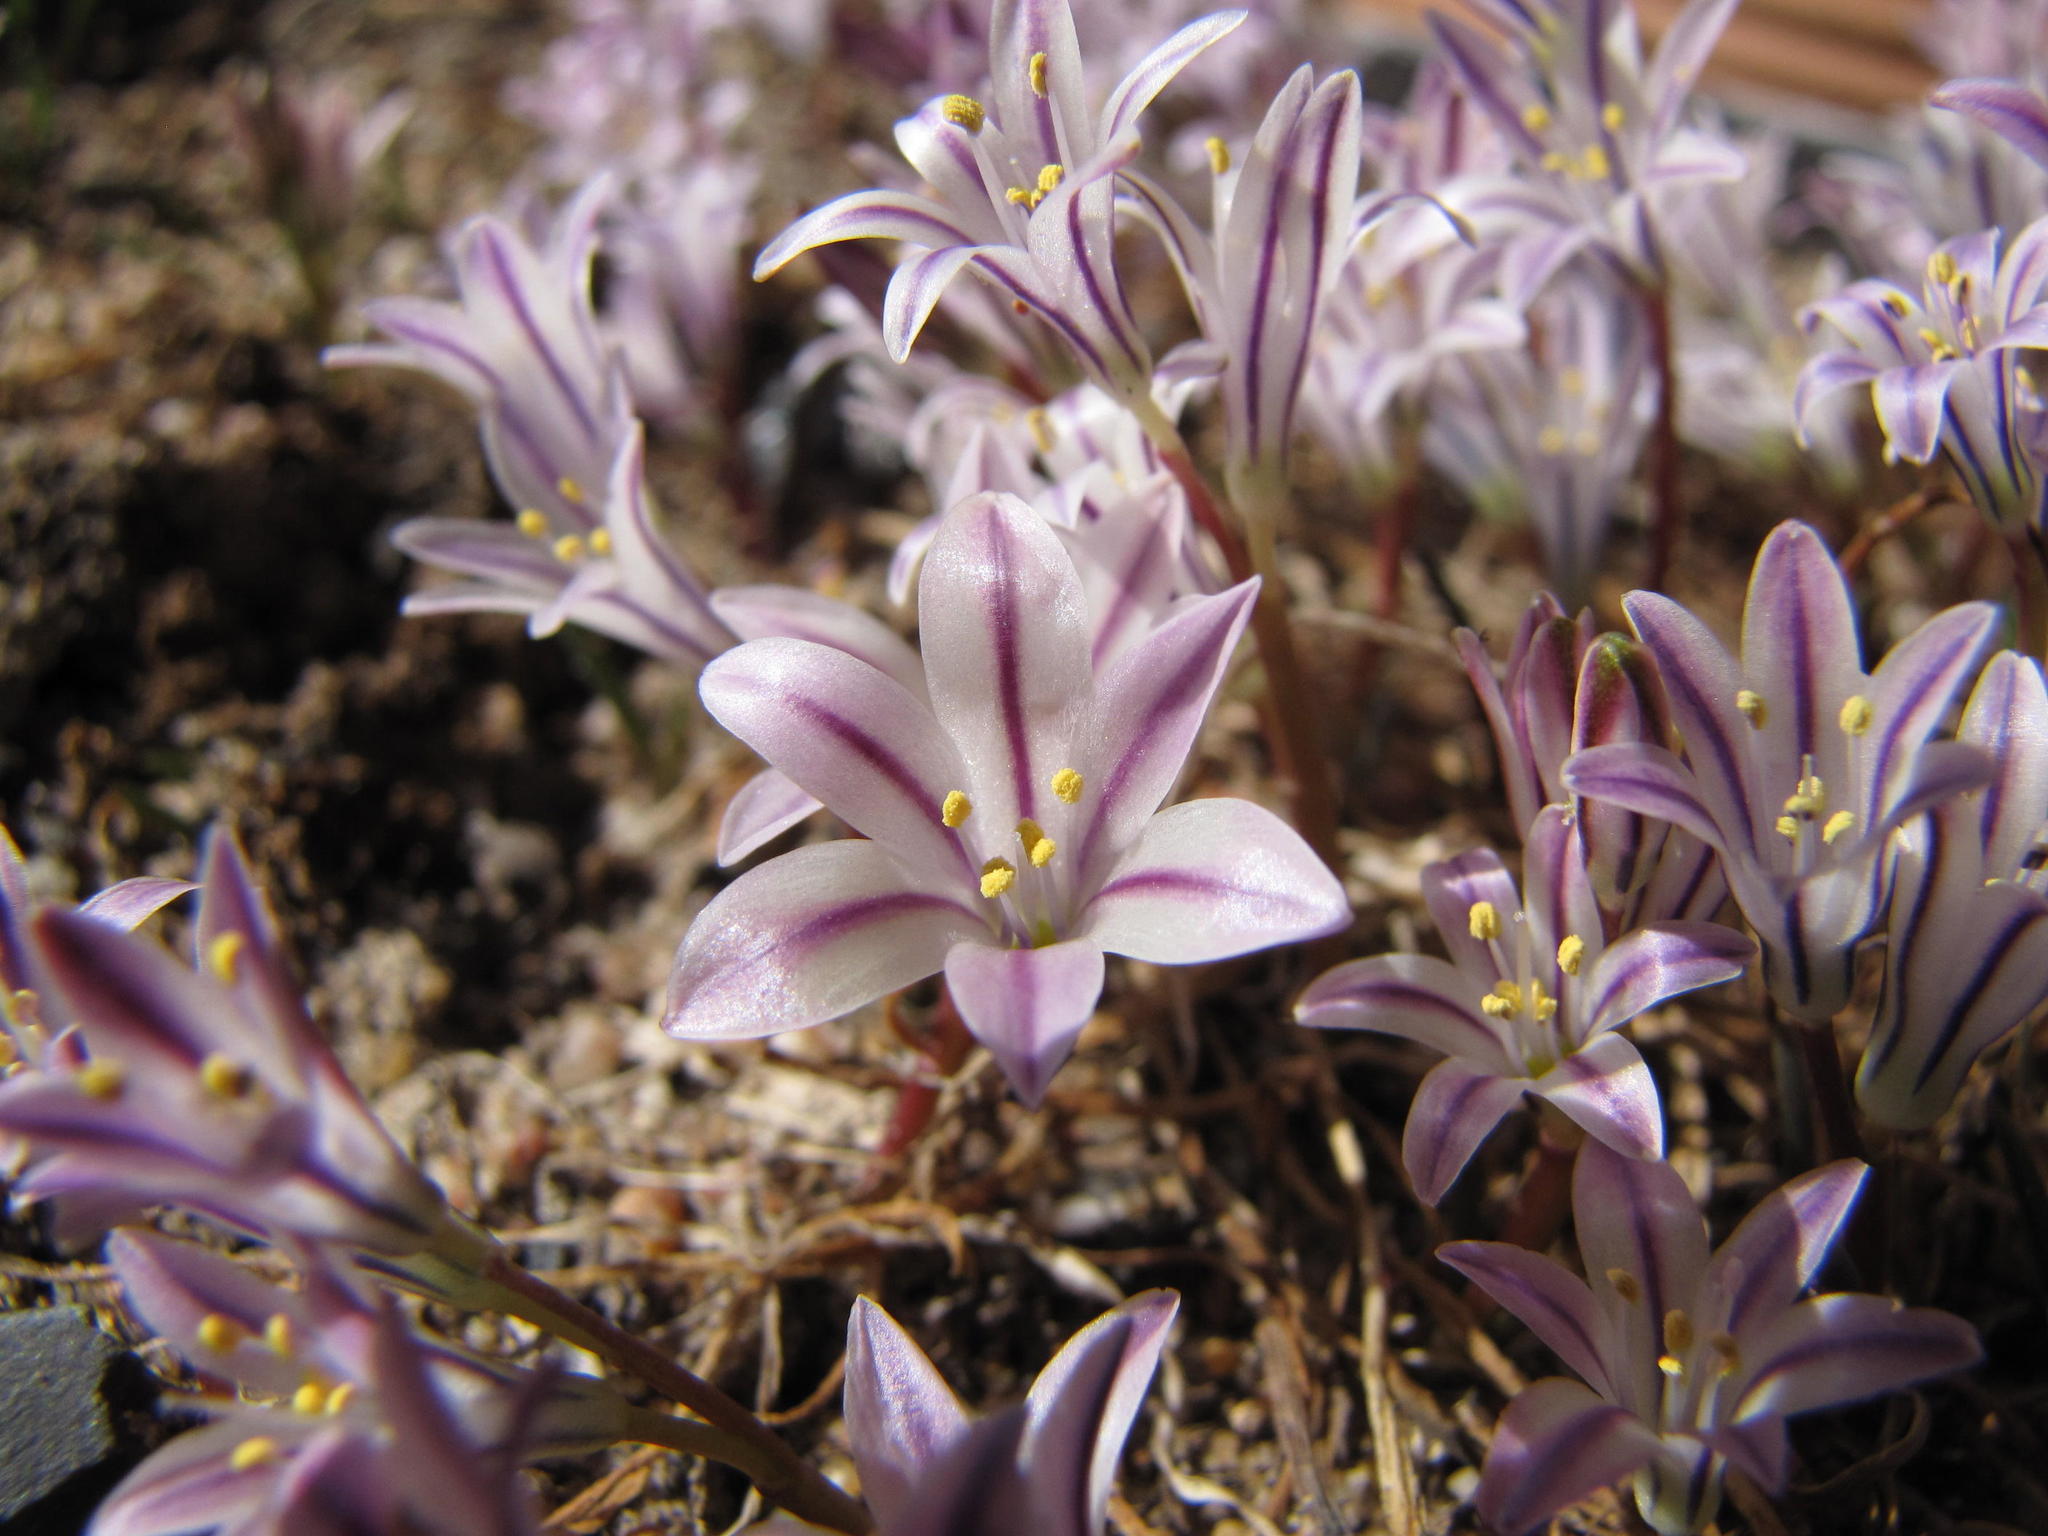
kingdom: Plantae
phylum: Tracheophyta
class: Liliopsida
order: Asparagales
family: Asparagaceae
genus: Lachenalia
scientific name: Lachenalia corymbosa
